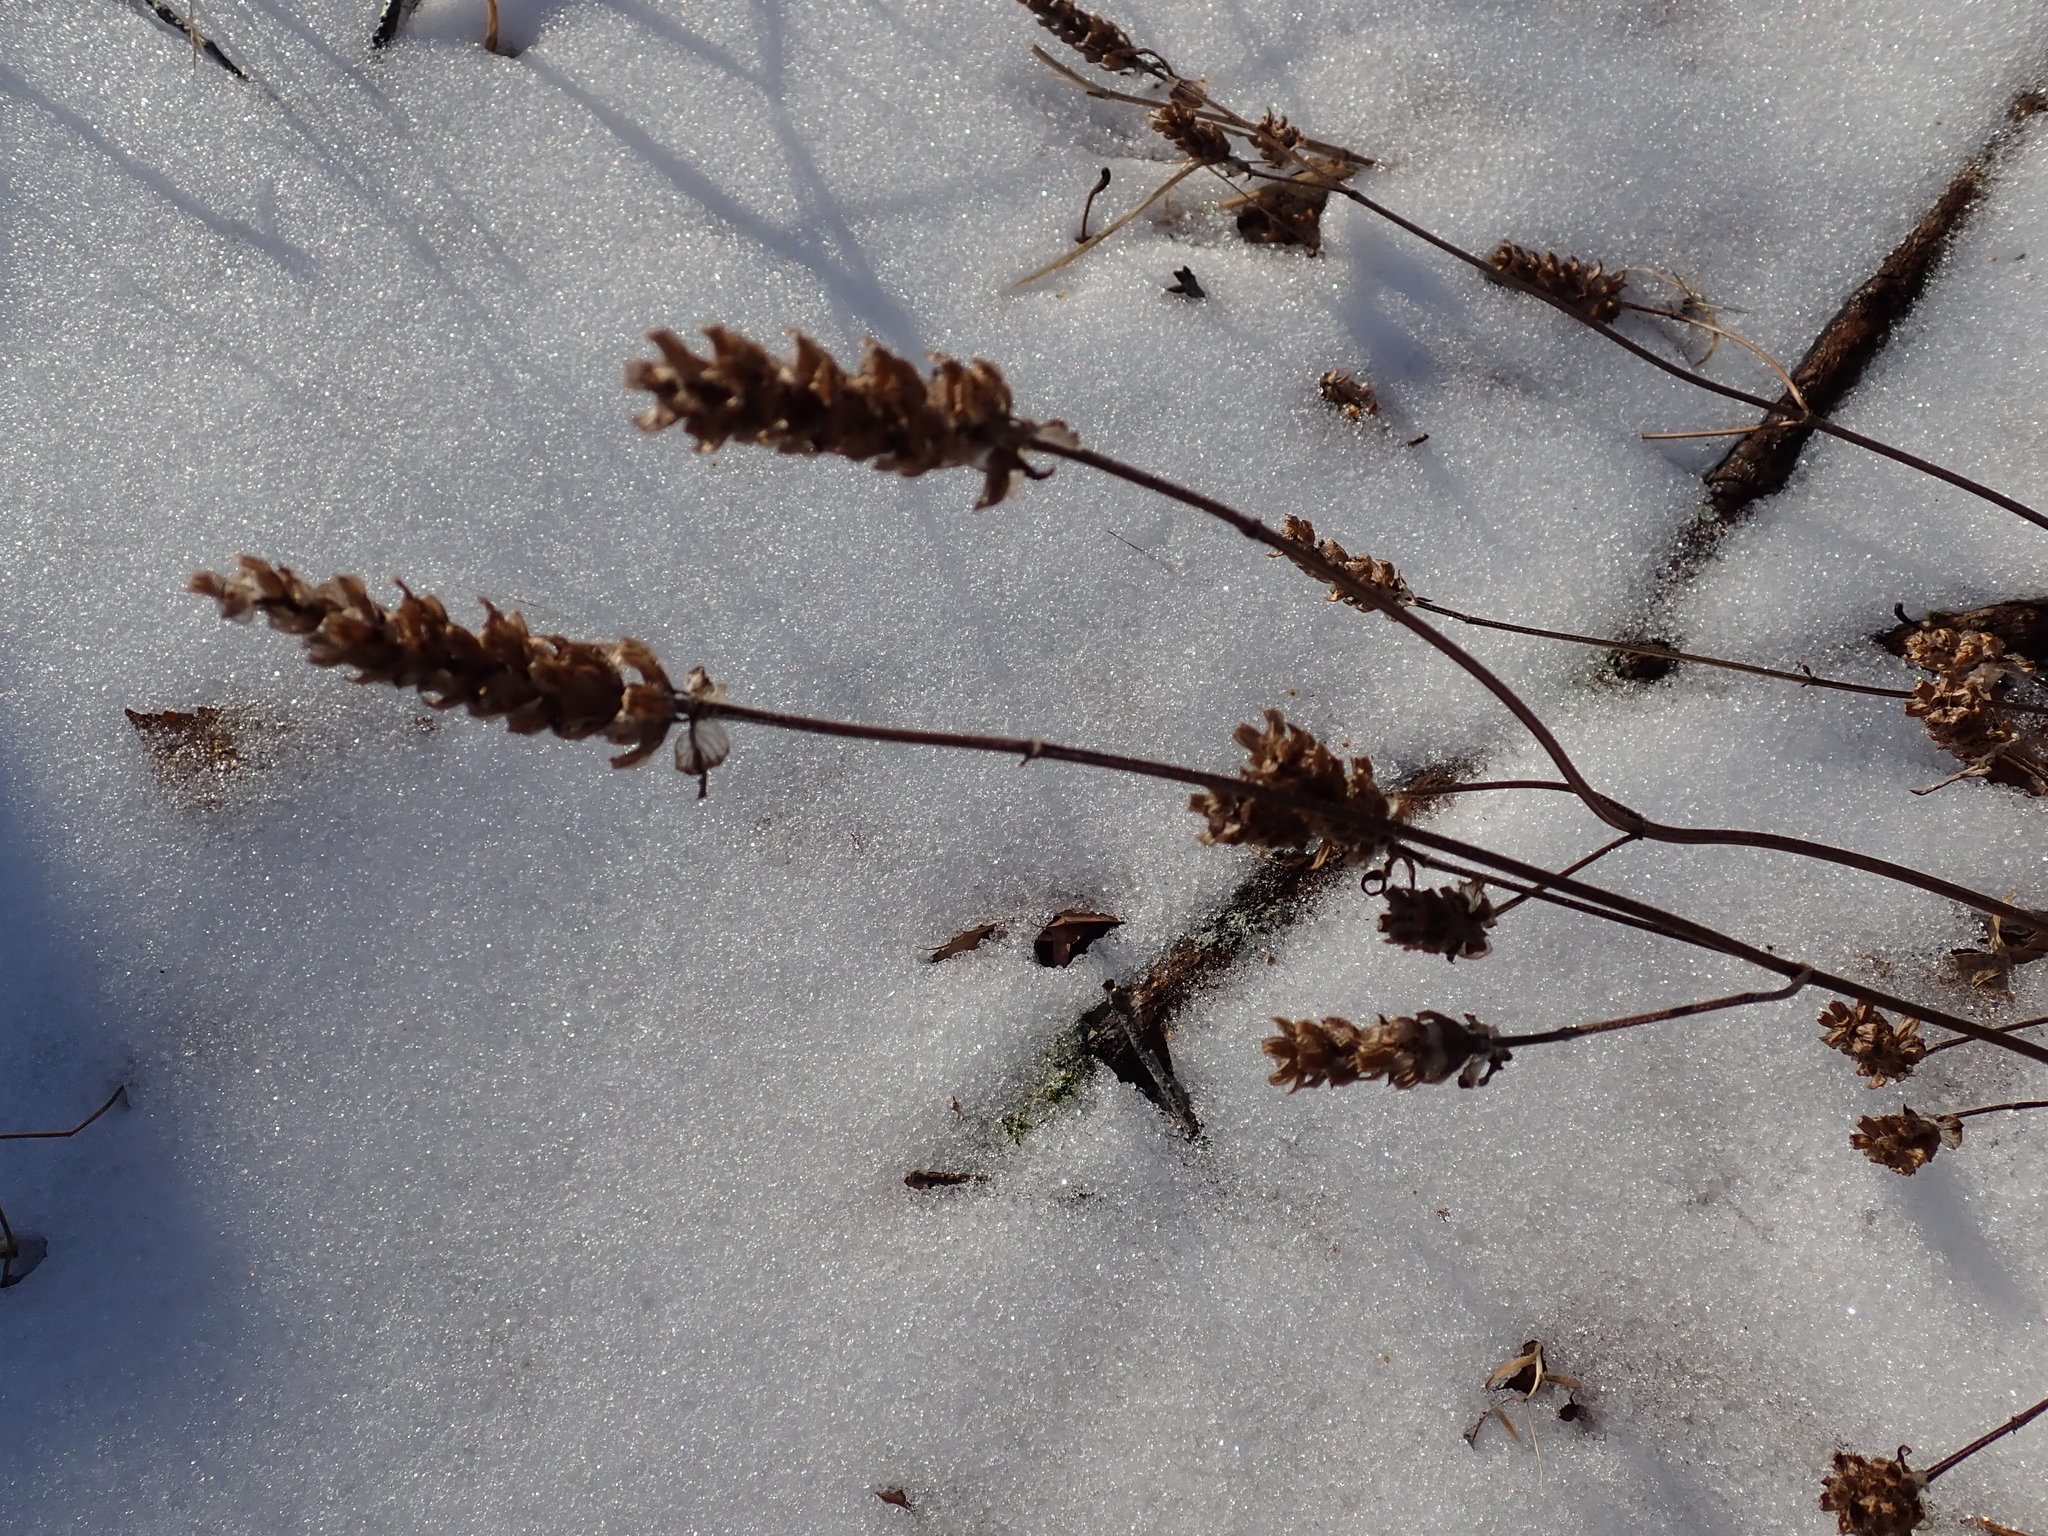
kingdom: Plantae
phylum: Tracheophyta
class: Magnoliopsida
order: Lamiales
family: Lamiaceae
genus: Prunella
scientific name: Prunella vulgaris
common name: Heal-all
